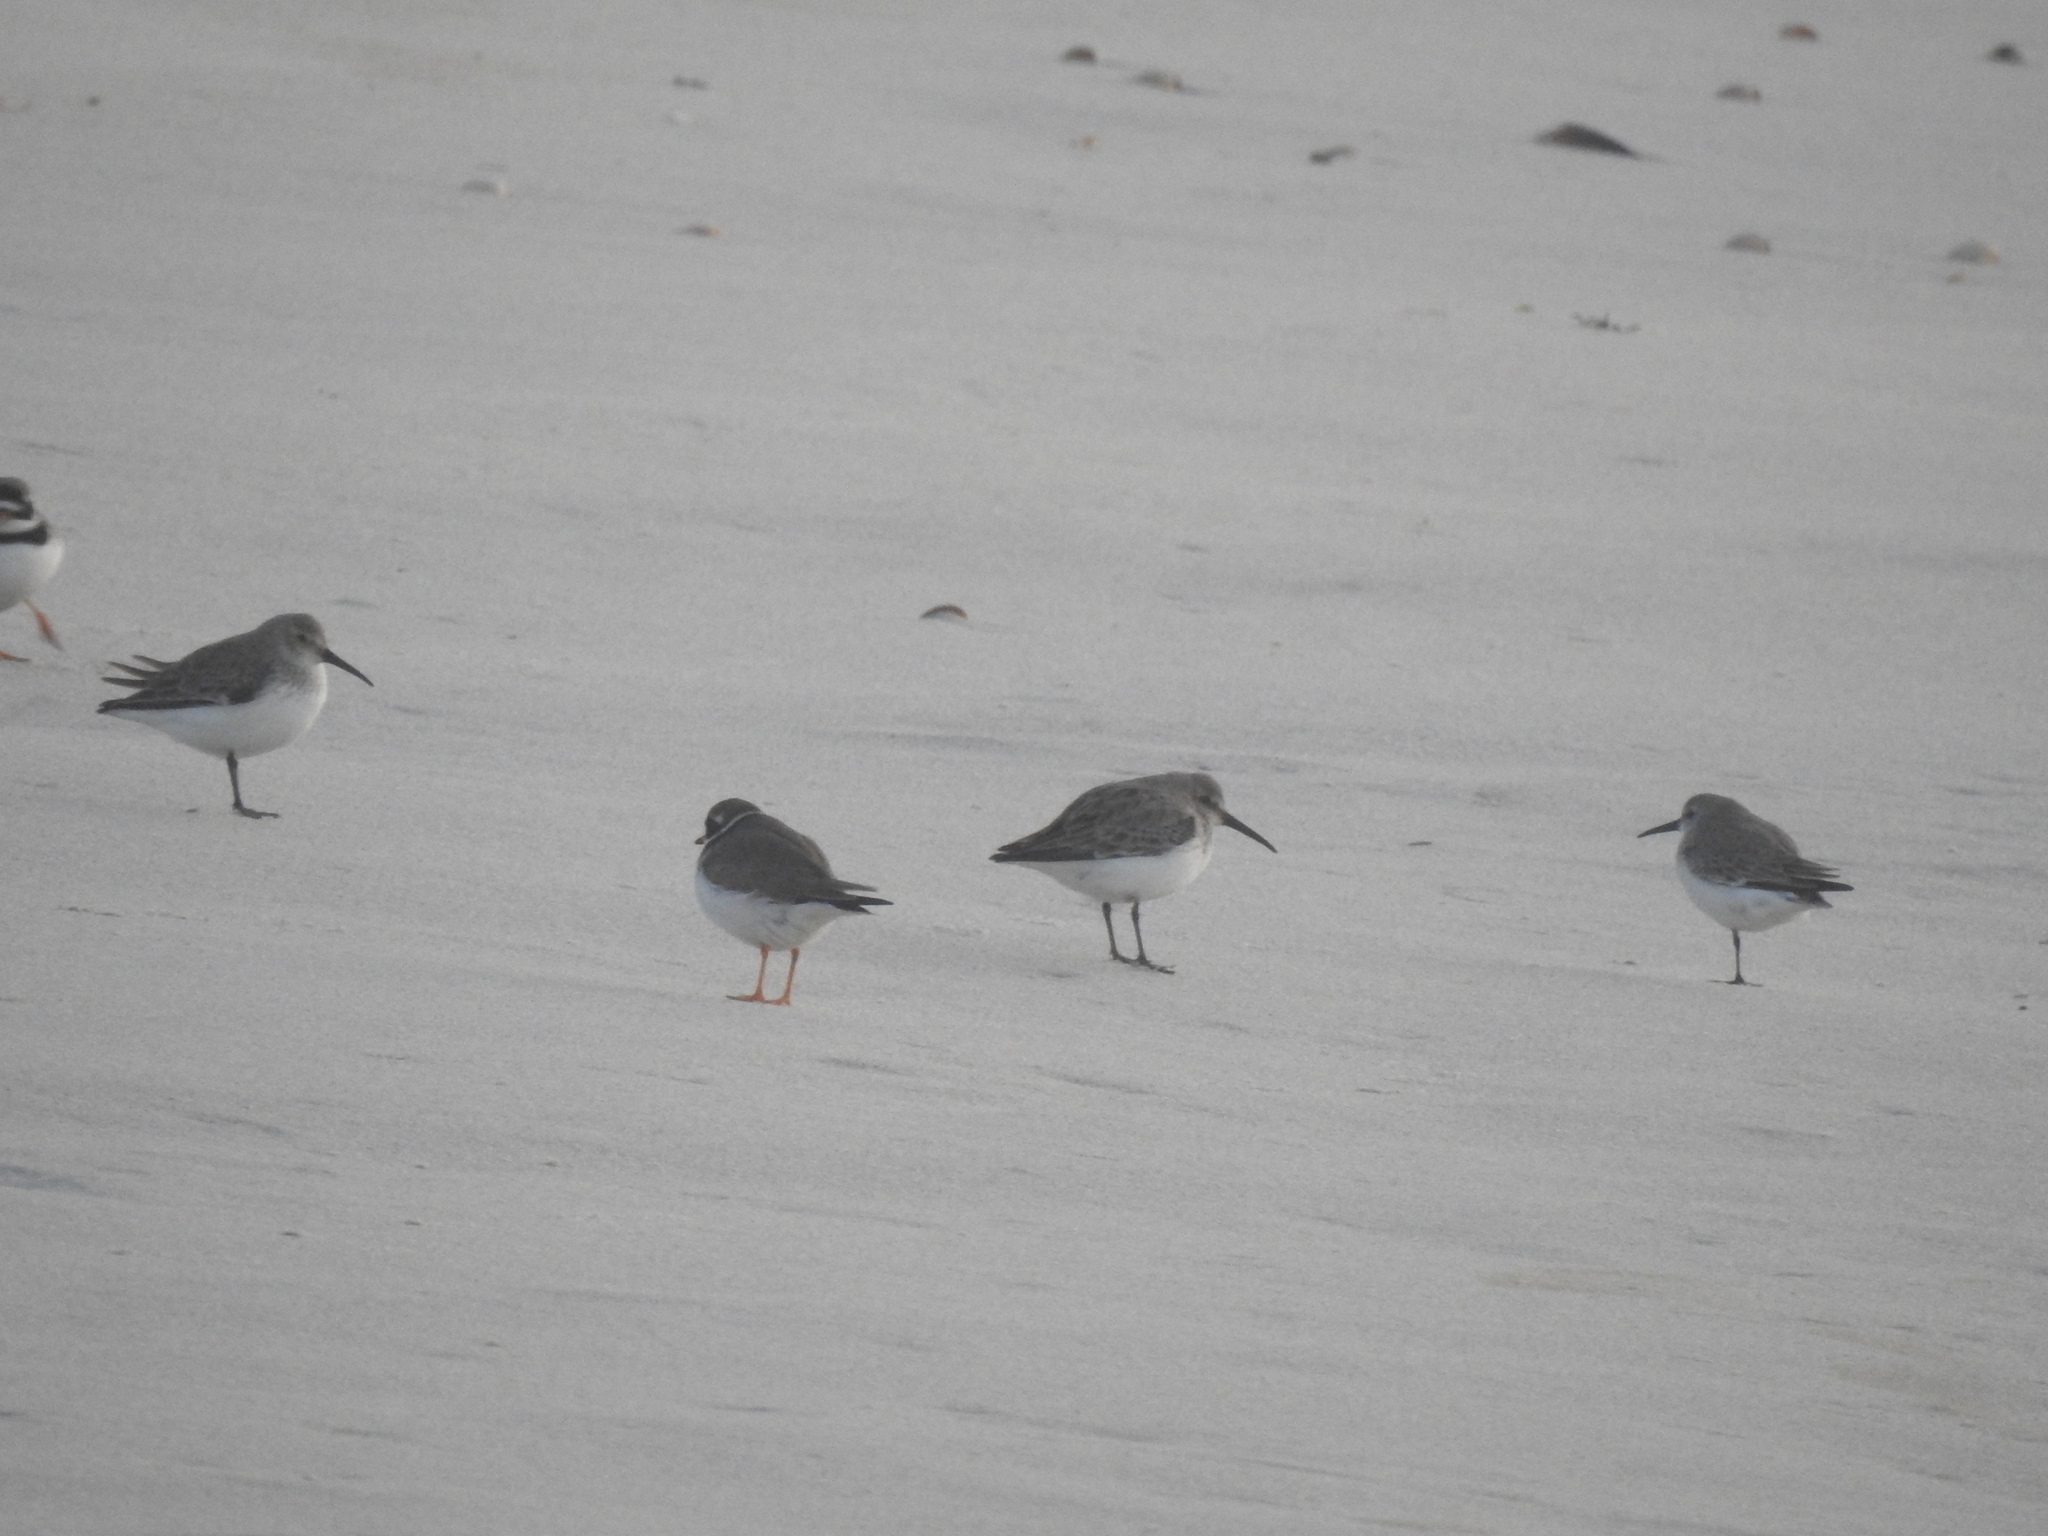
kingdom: Animalia
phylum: Chordata
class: Aves
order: Charadriiformes
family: Scolopacidae
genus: Calidris
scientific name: Calidris alpina
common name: Dunlin
